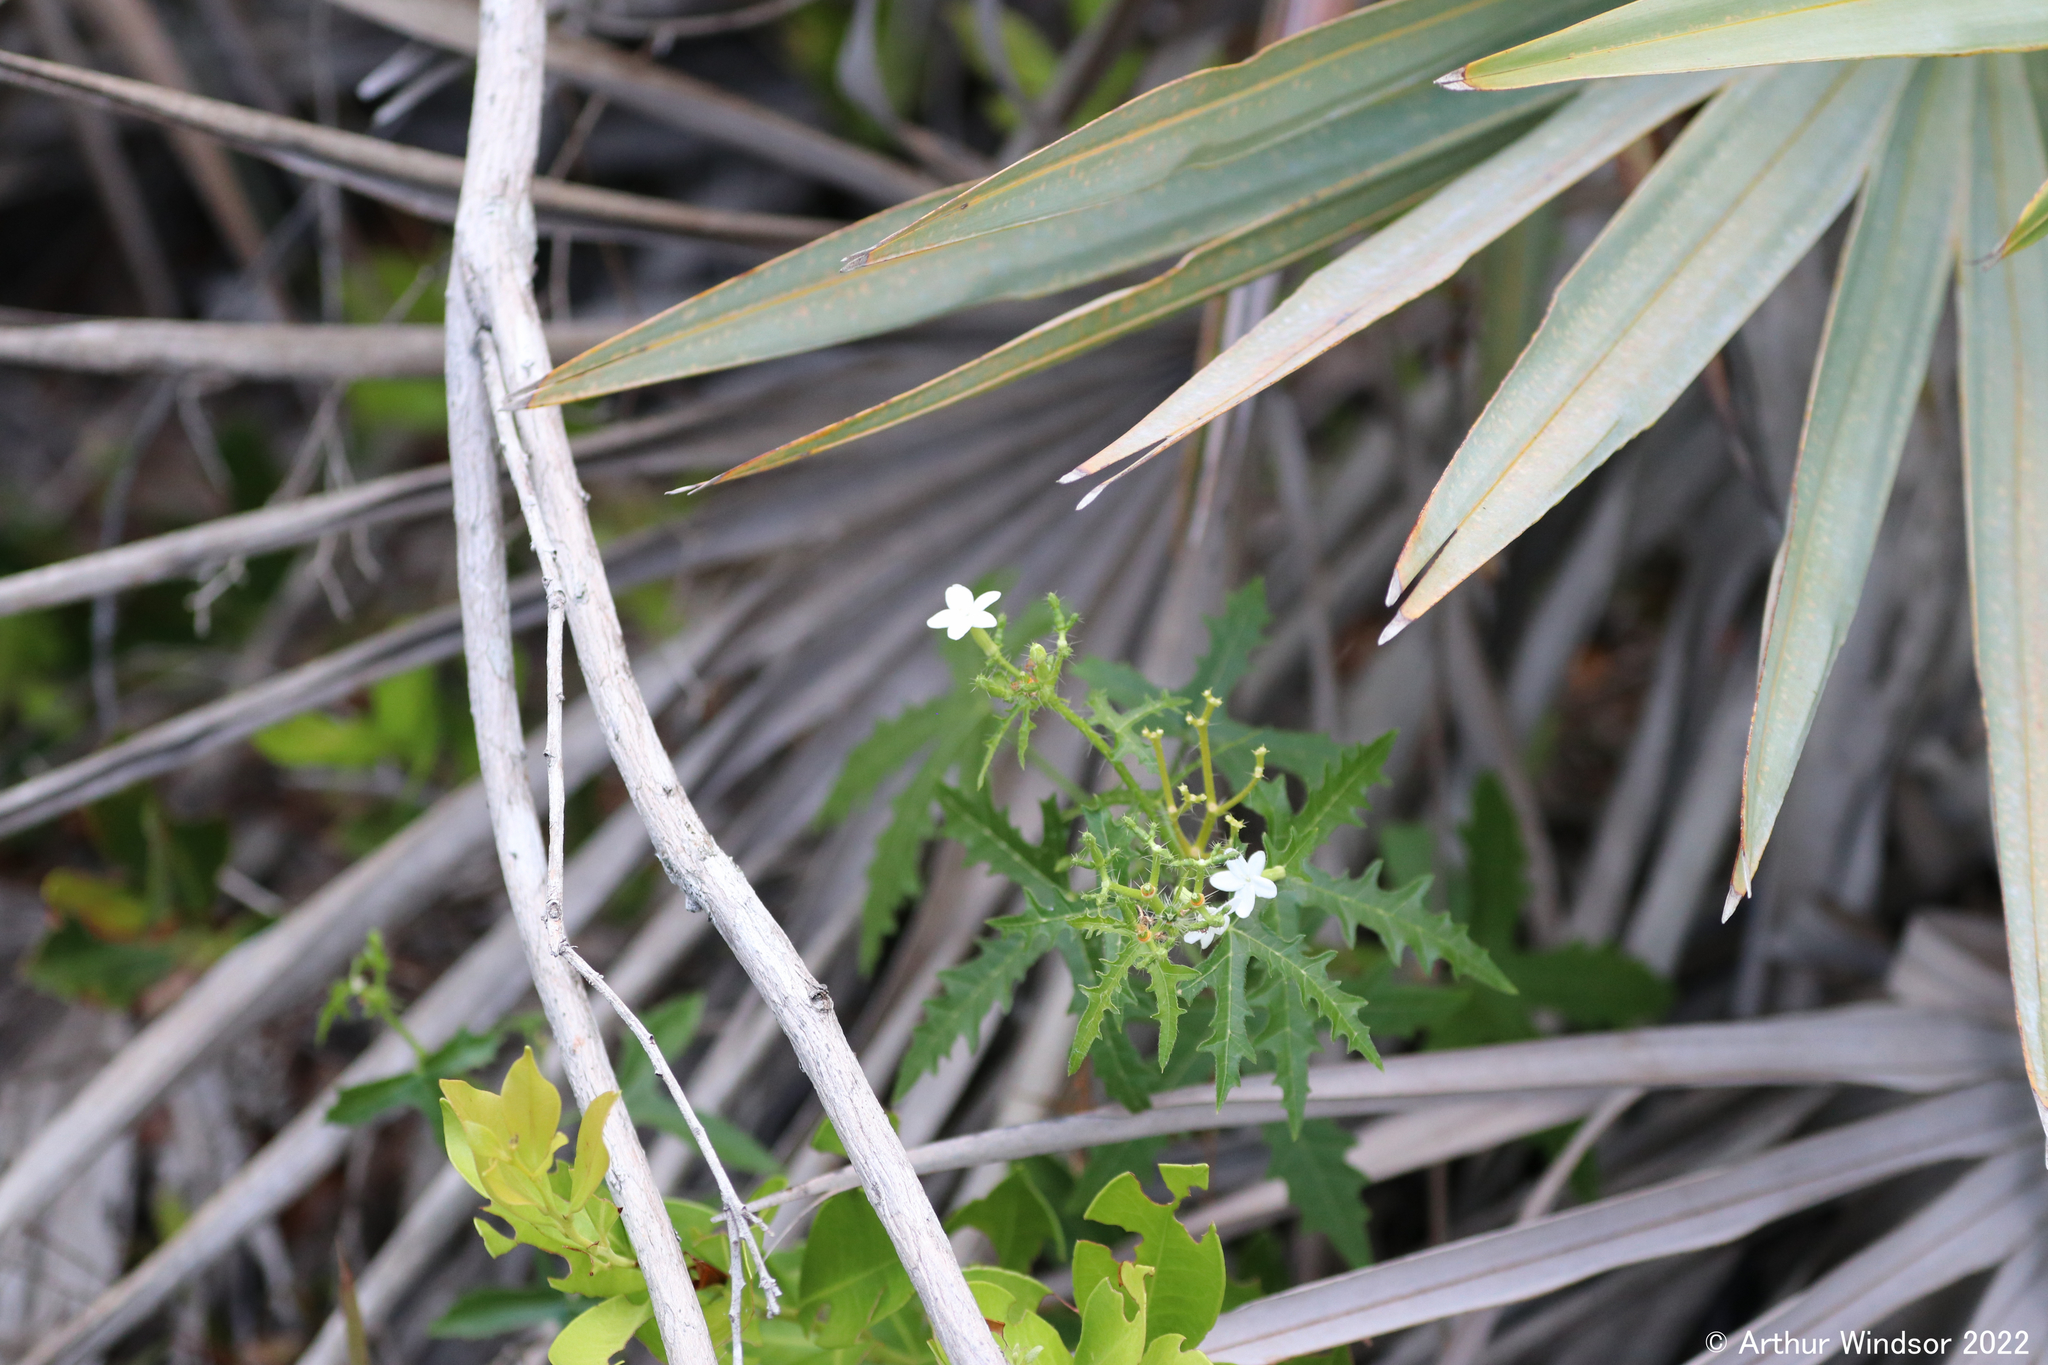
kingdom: Plantae
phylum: Tracheophyta
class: Magnoliopsida
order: Malpighiales
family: Euphorbiaceae
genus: Cnidoscolus
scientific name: Cnidoscolus stimulosus
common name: Bull-nettle
